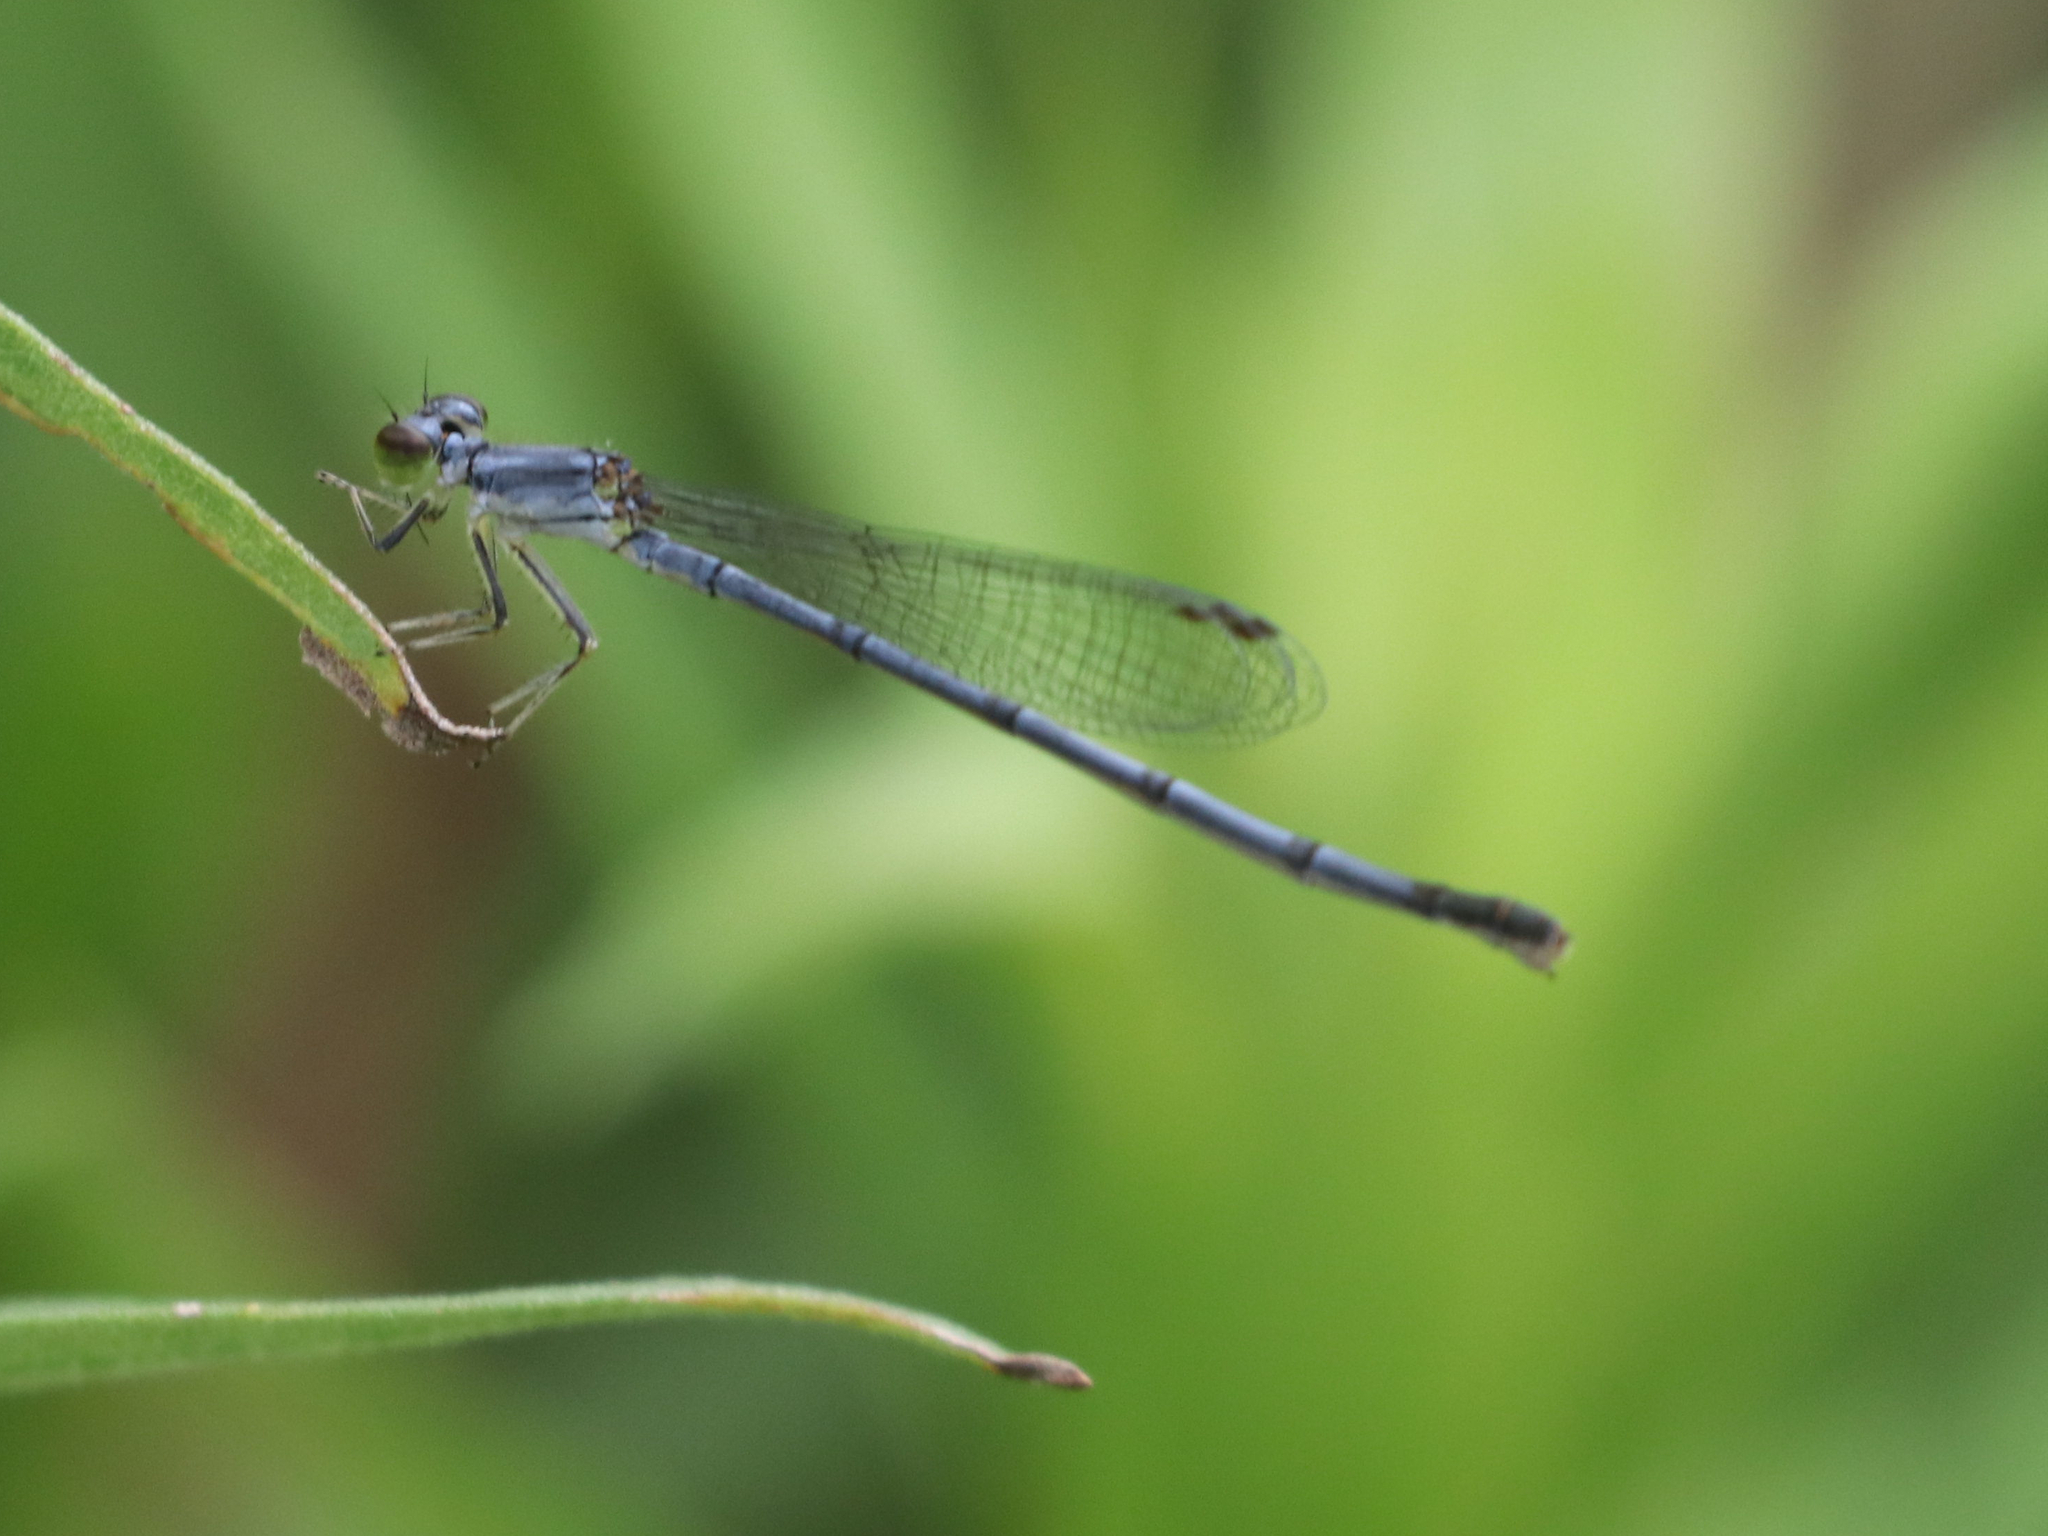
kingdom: Animalia
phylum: Arthropoda
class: Insecta
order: Odonata
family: Coenagrionidae
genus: Ischnura
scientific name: Ischnura posita
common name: Fragile forktail
